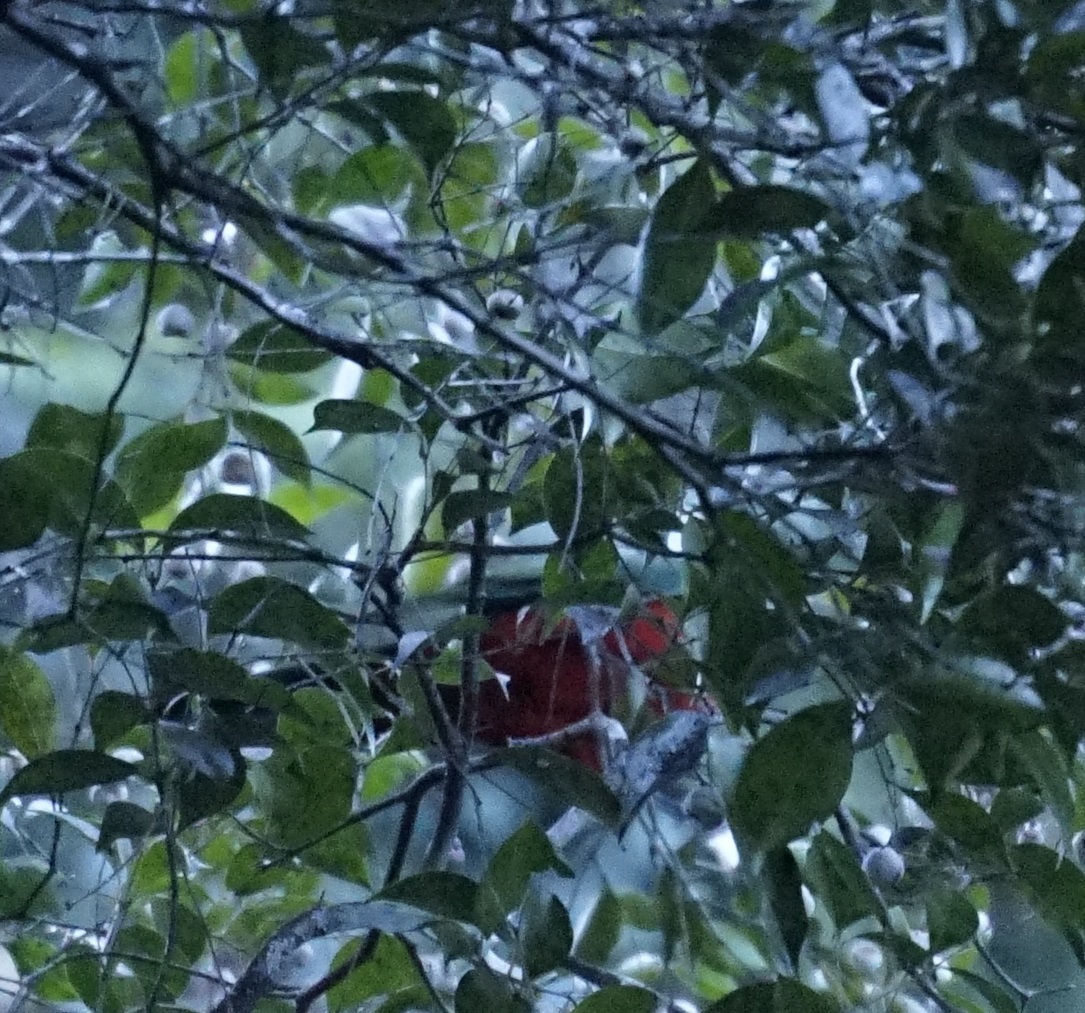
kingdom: Animalia
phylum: Chordata
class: Aves
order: Psittaciformes
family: Psittacidae
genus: Alisterus
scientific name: Alisterus scapularis
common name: Australian king parrot
